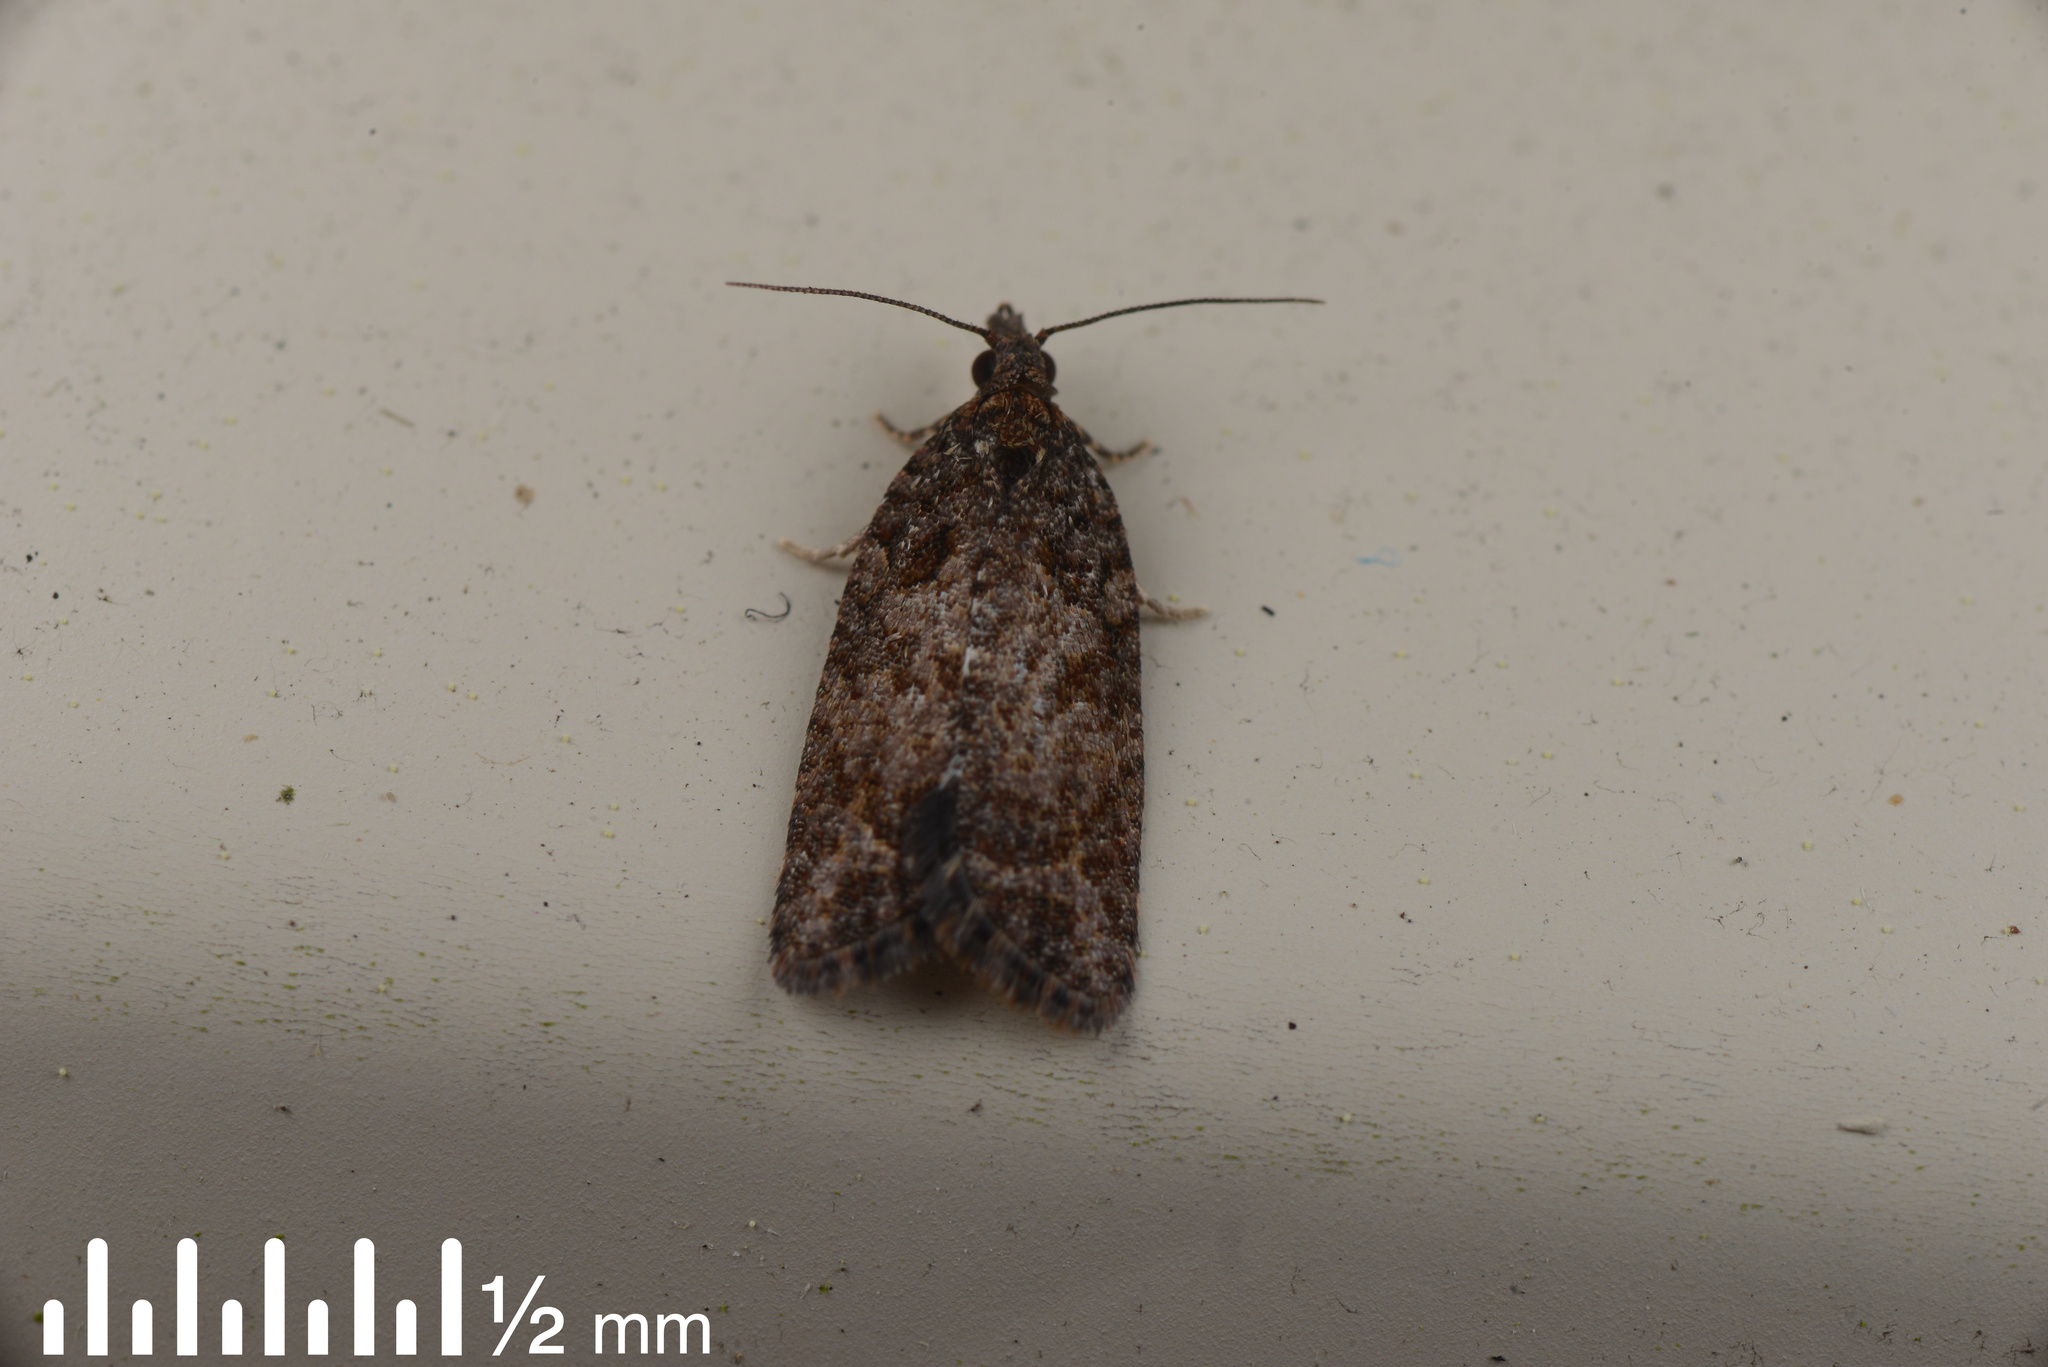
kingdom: Animalia
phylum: Arthropoda
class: Insecta
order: Lepidoptera
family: Tortricidae
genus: Capua
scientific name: Capua intractana
